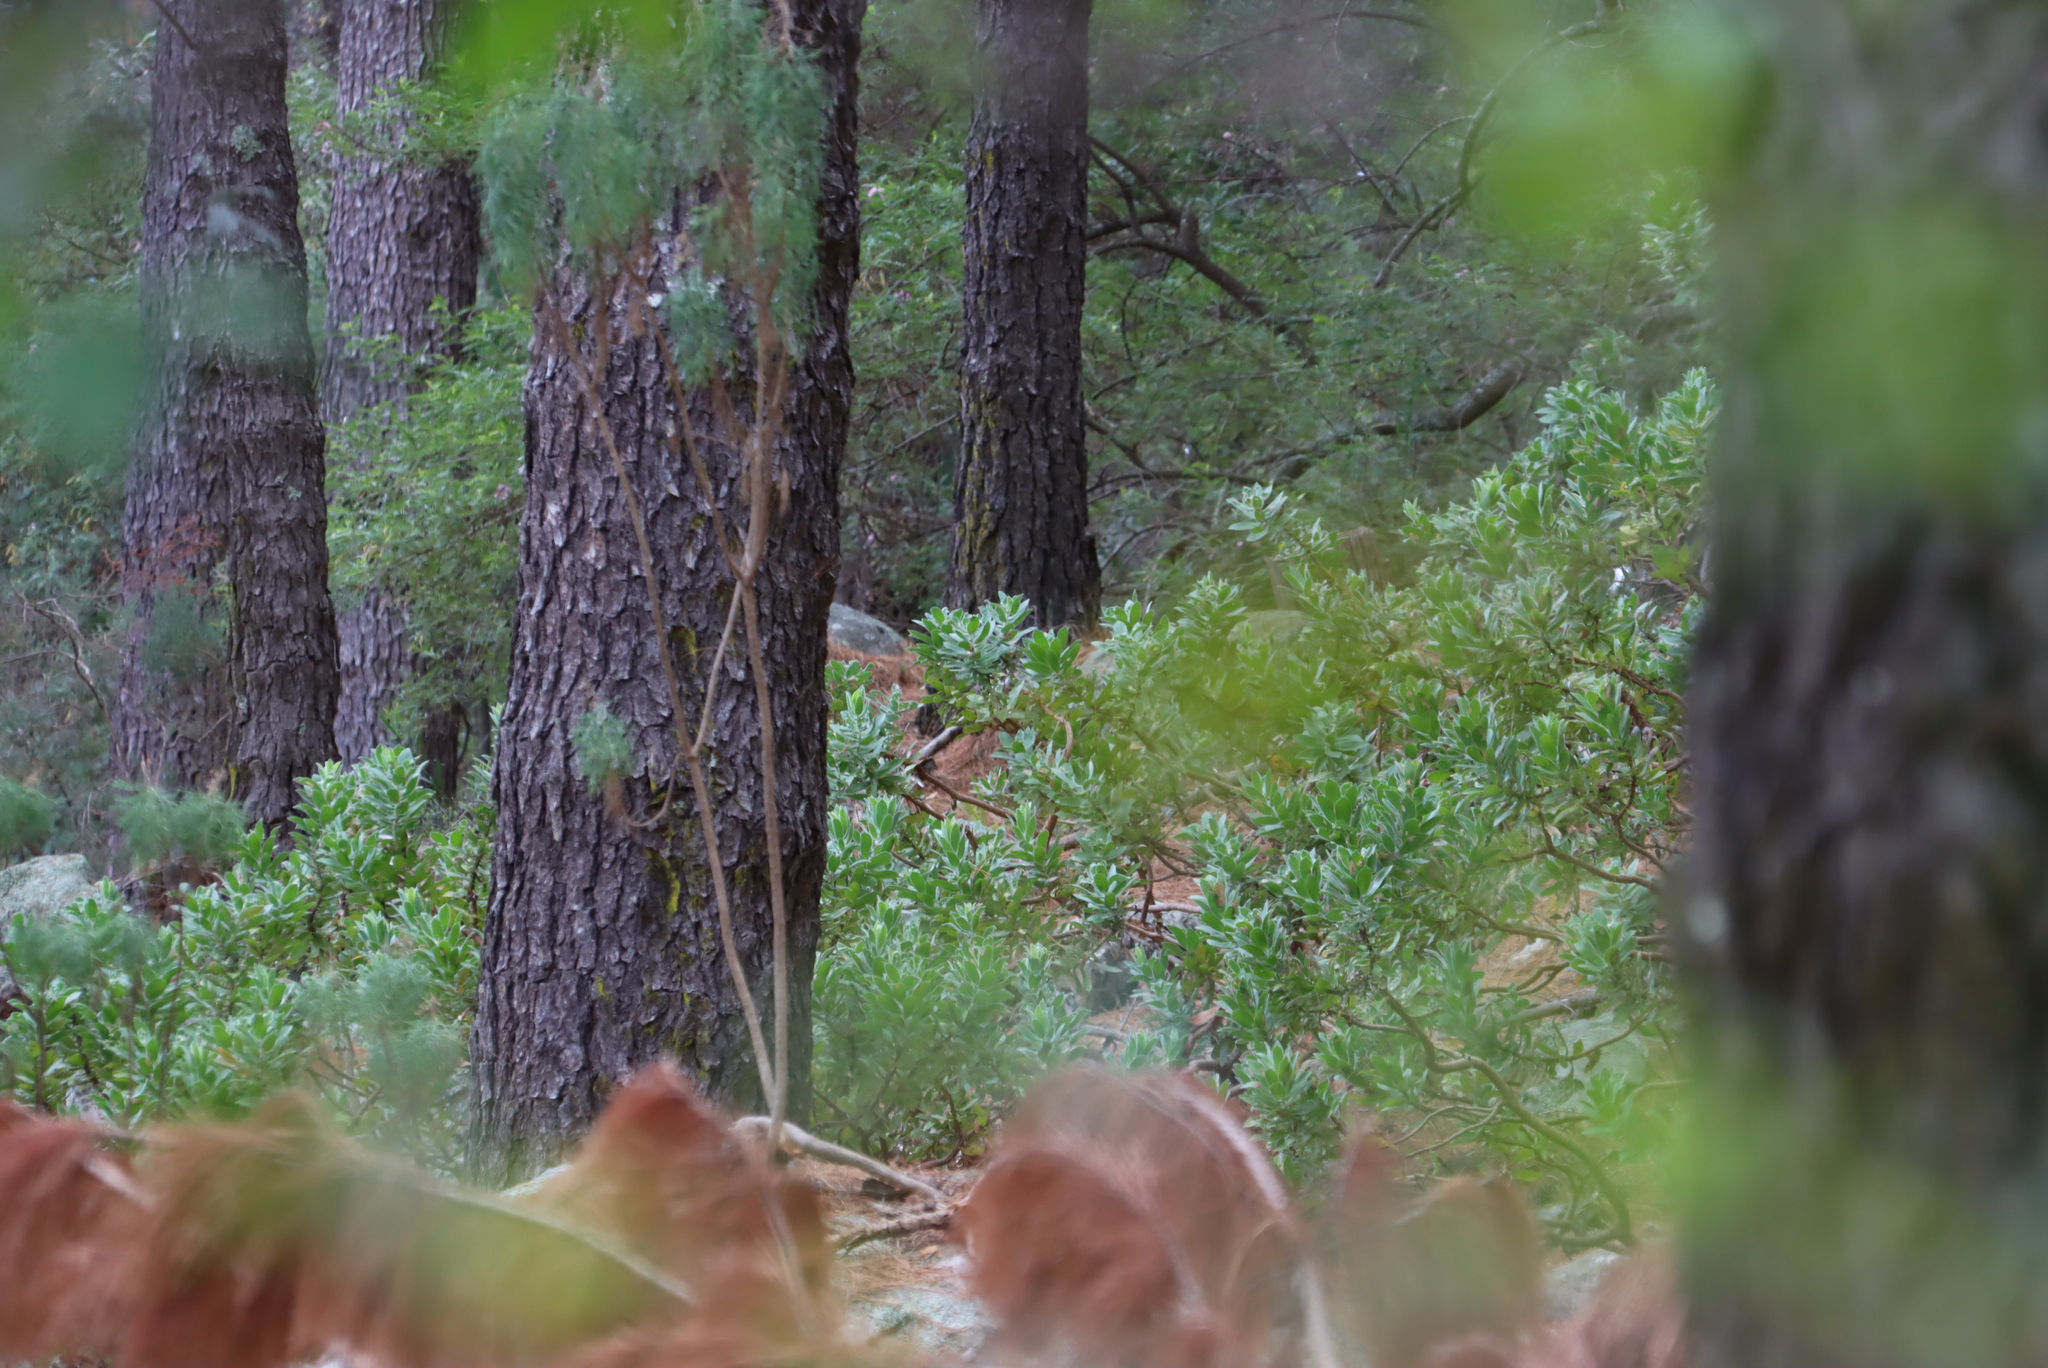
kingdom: Plantae
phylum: Tracheophyta
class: Magnoliopsida
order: Proteales
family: Proteaceae
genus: Leucospermum
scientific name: Leucospermum conocarpodendron
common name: Tree pincushion
